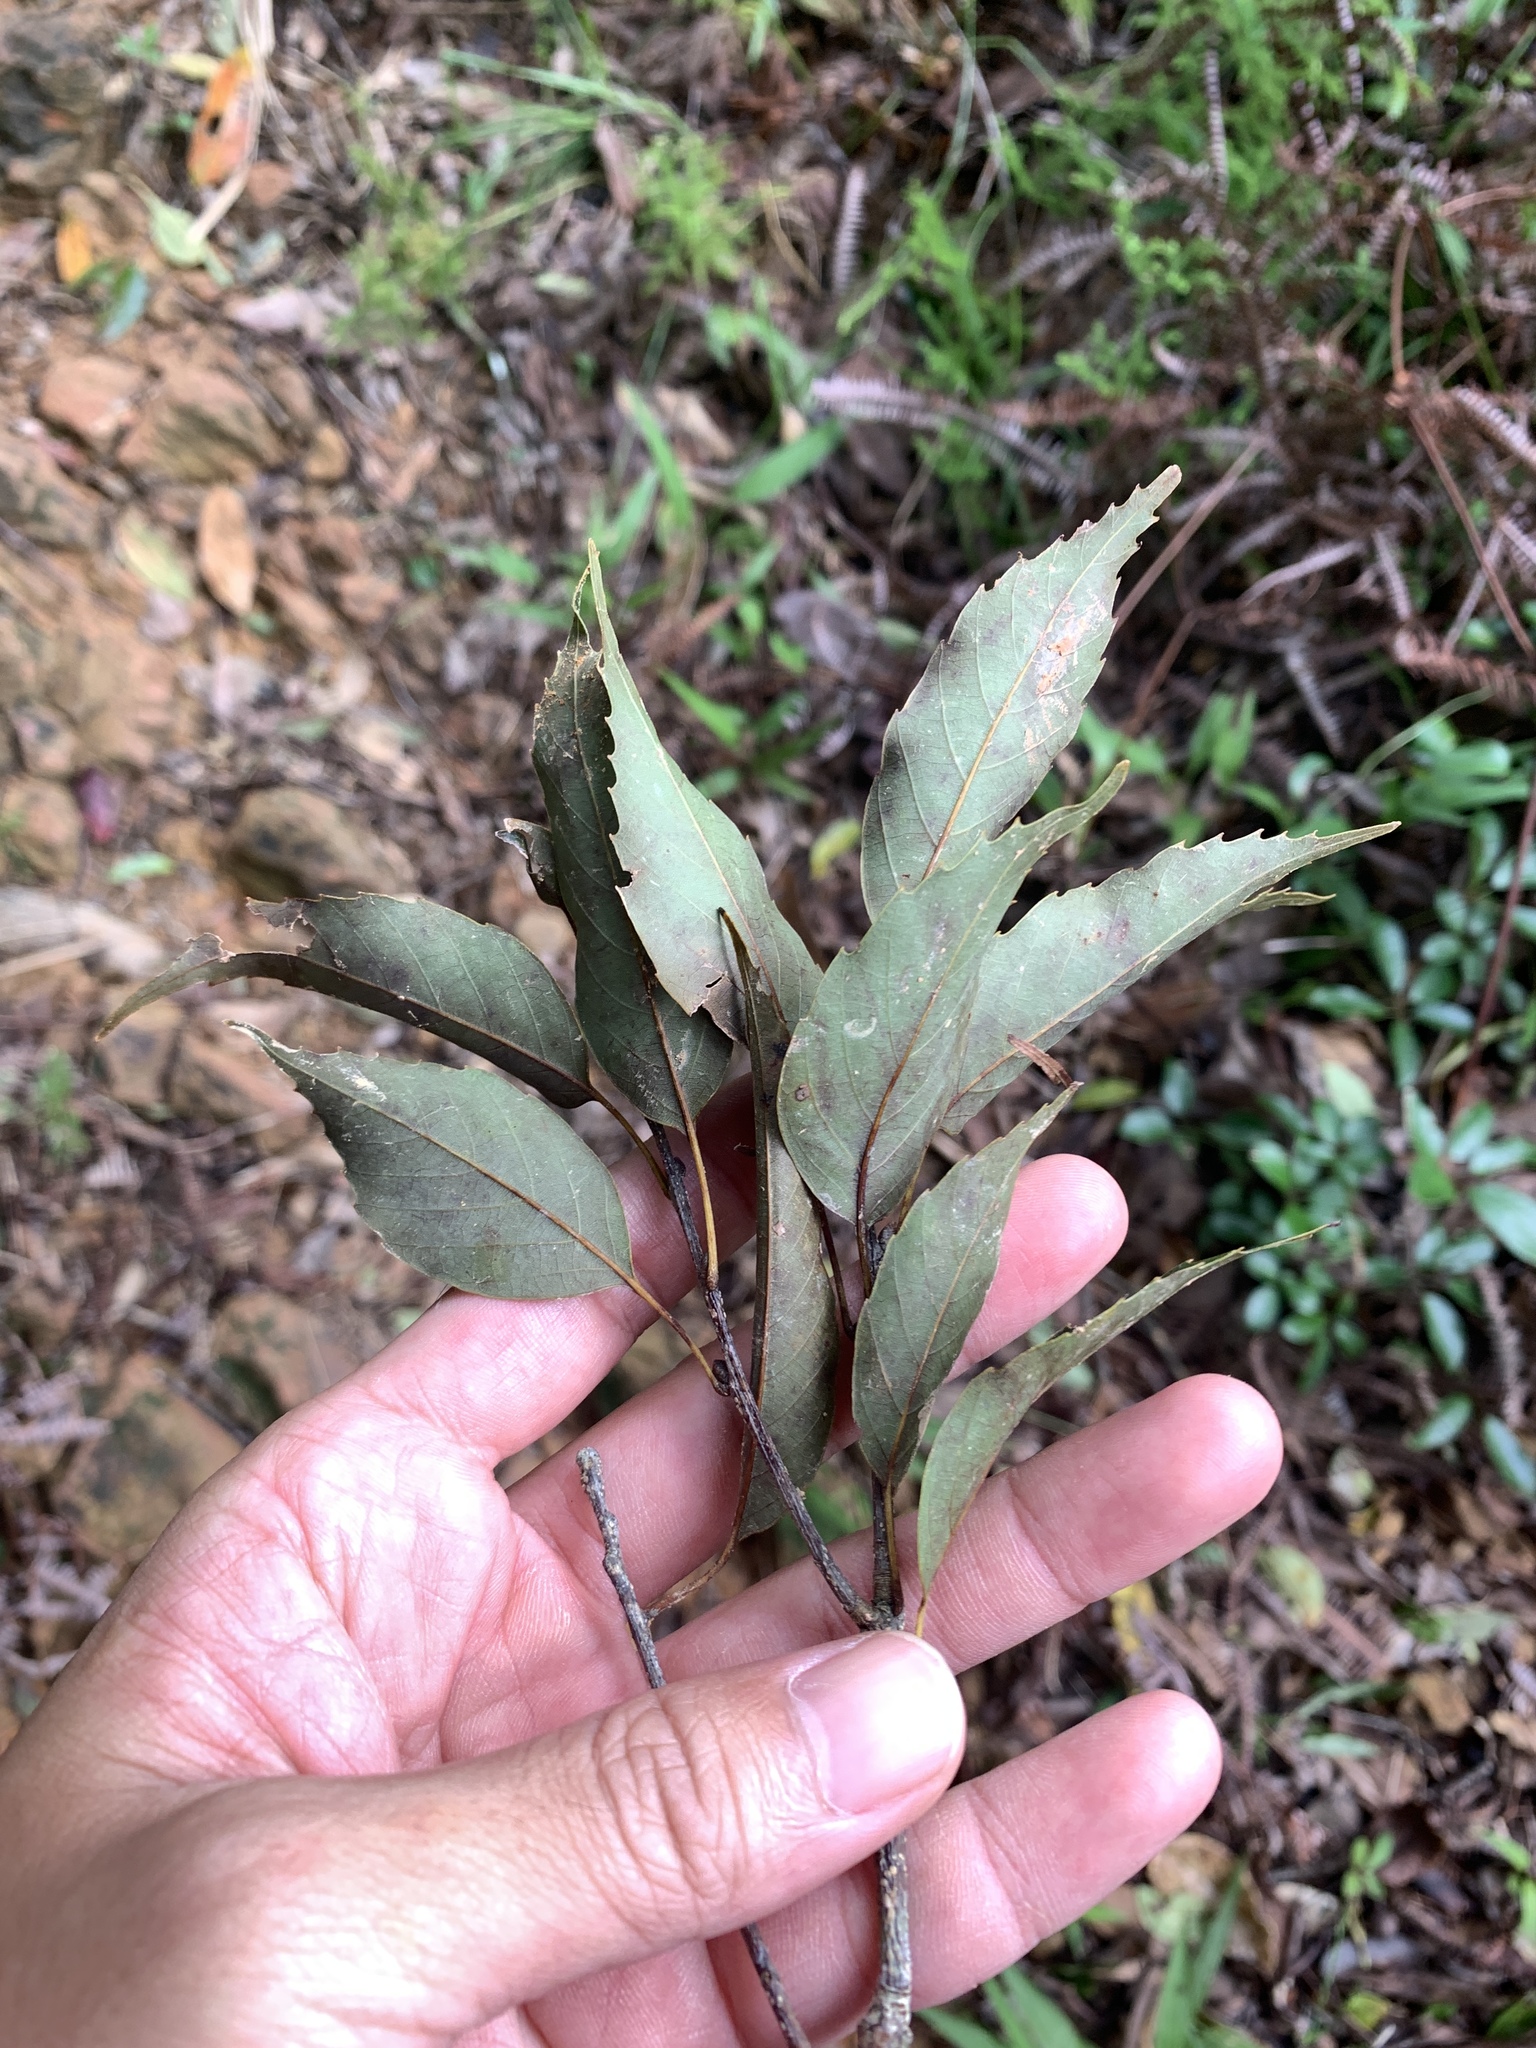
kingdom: Plantae
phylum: Tracheophyta
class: Magnoliopsida
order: Fagales
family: Fagaceae
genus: Quercus
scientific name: Quercus longinux
